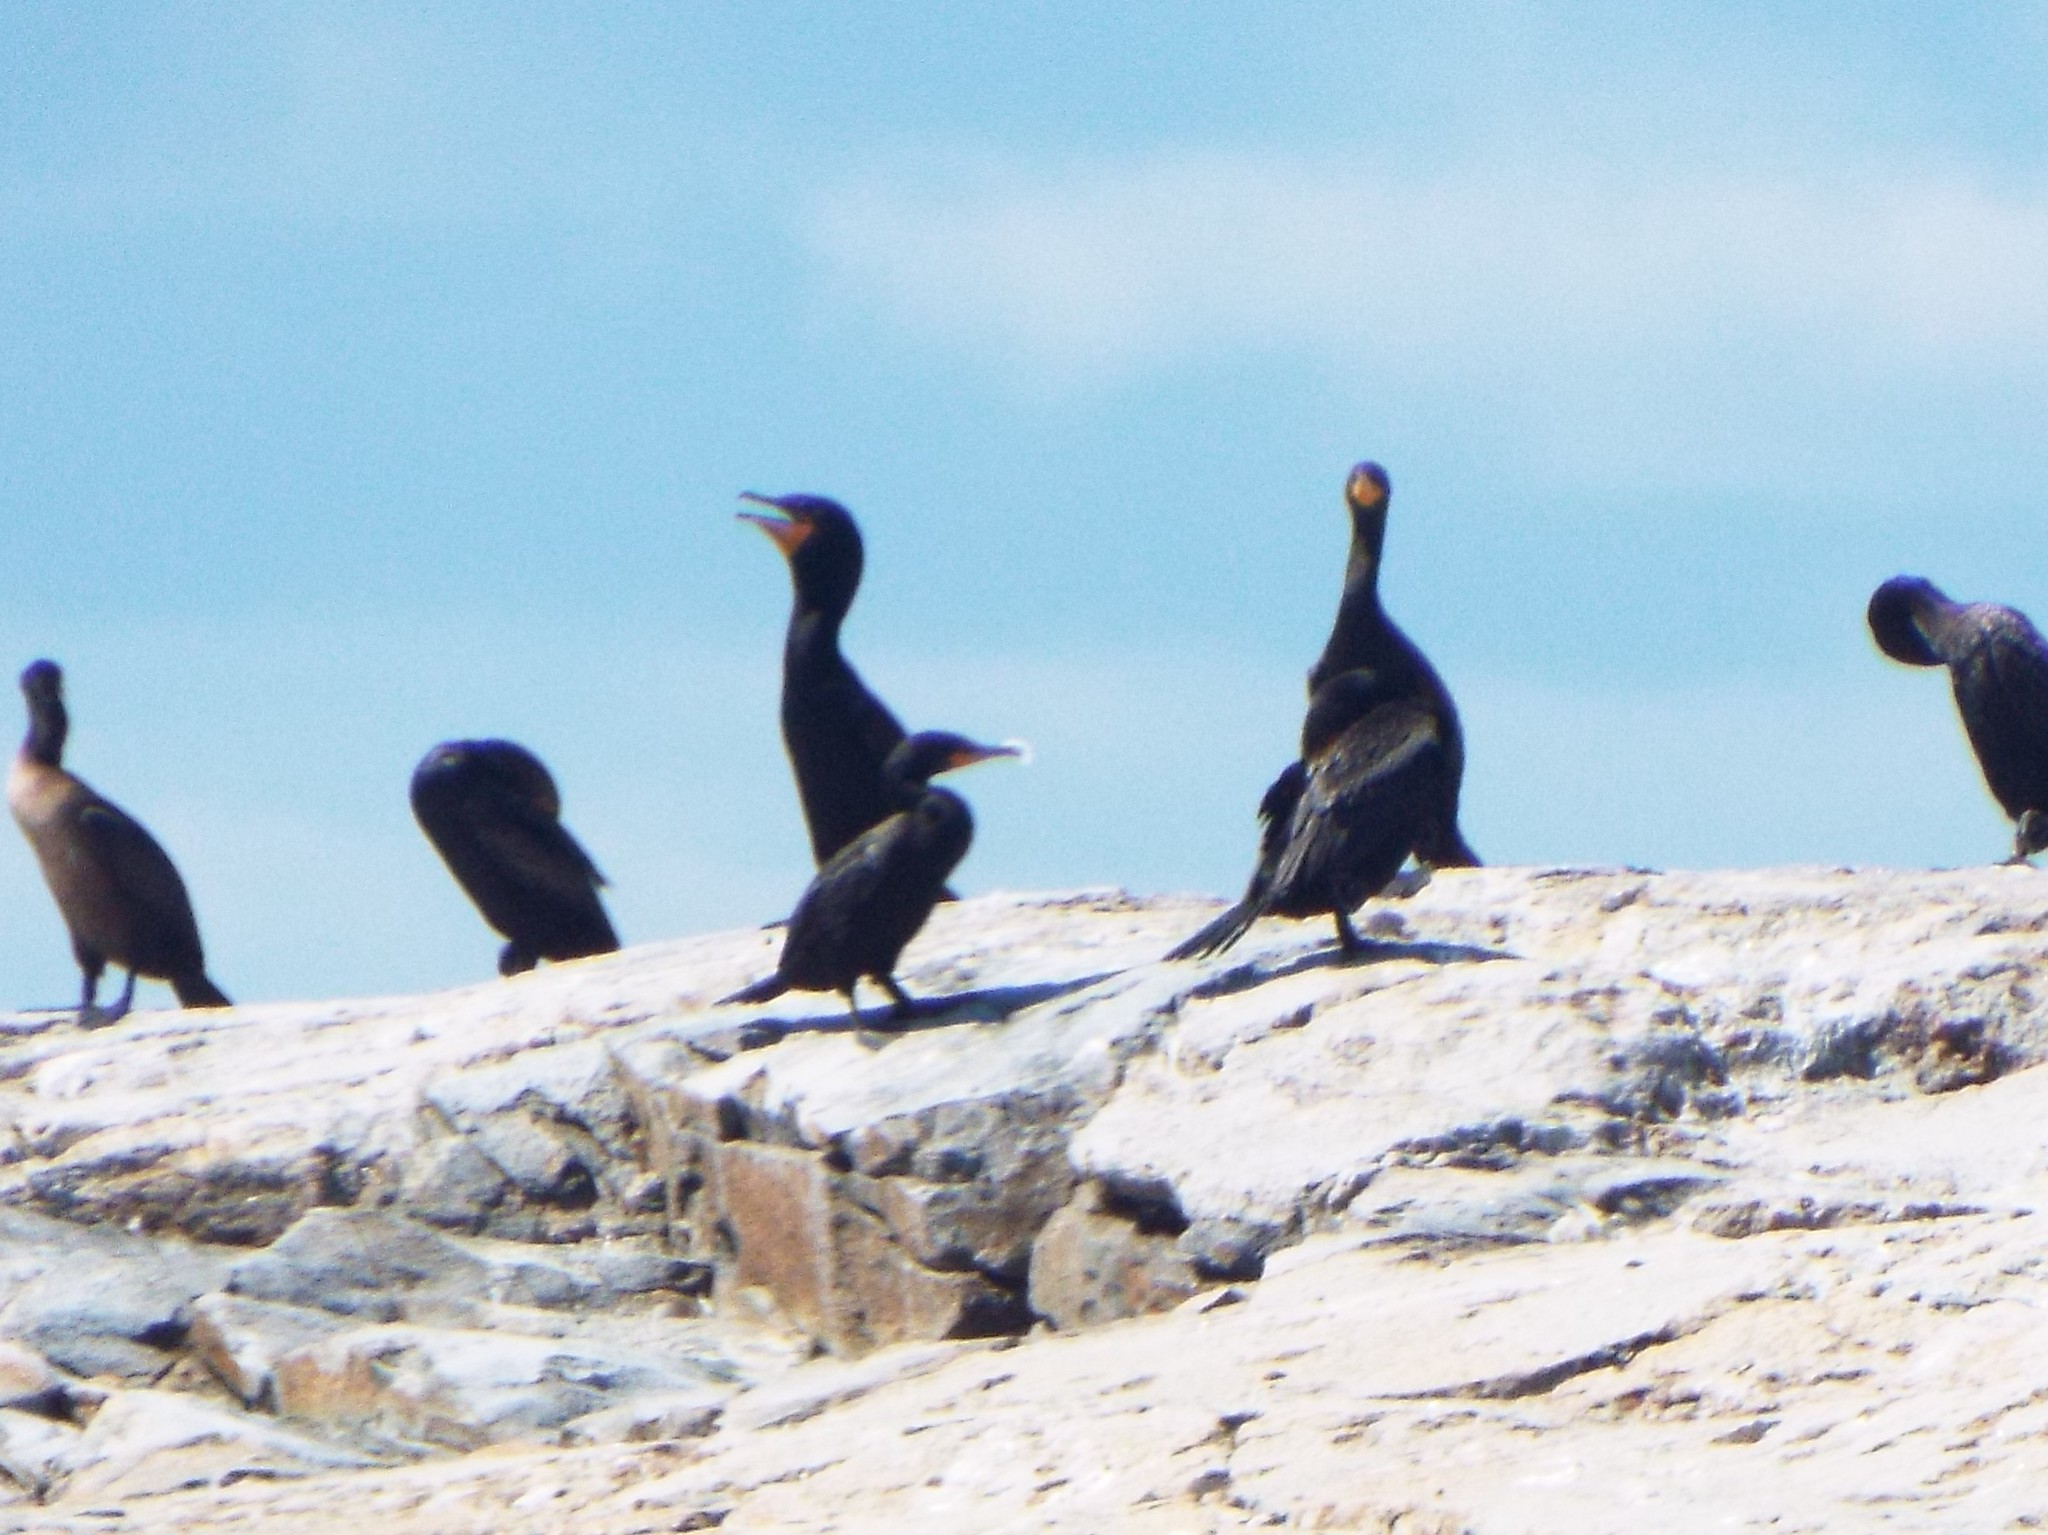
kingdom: Animalia
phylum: Chordata
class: Aves
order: Suliformes
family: Phalacrocoracidae
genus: Phalacrocorax
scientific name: Phalacrocorax auritus
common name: Double-crested cormorant
